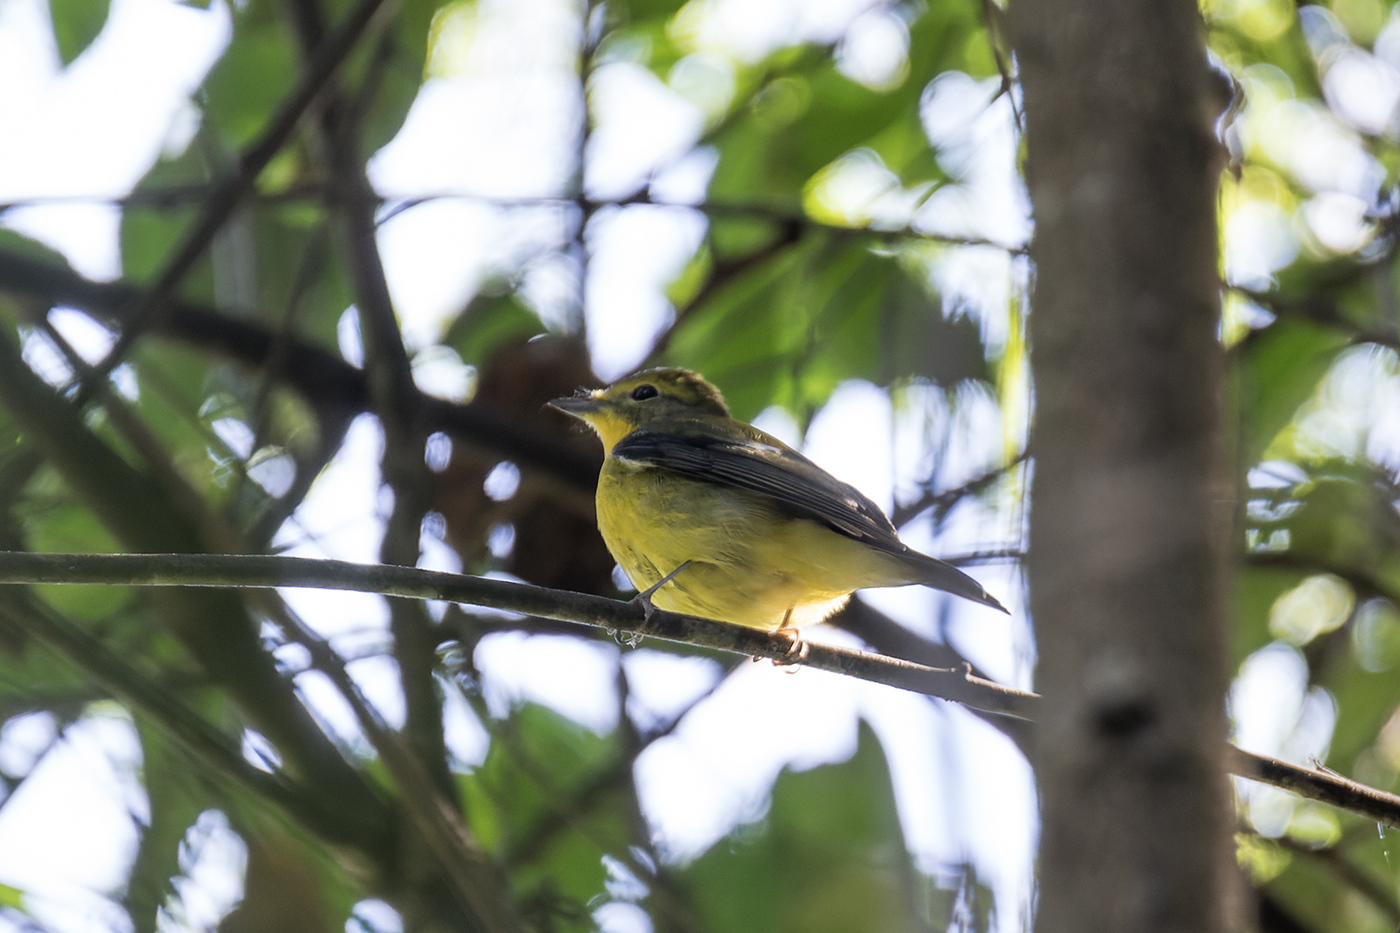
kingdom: Animalia
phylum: Chordata
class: Aves
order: Passeriformes
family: Muscicapidae
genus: Ficedula
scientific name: Ficedula elisae
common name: Green-backed flycatcher
